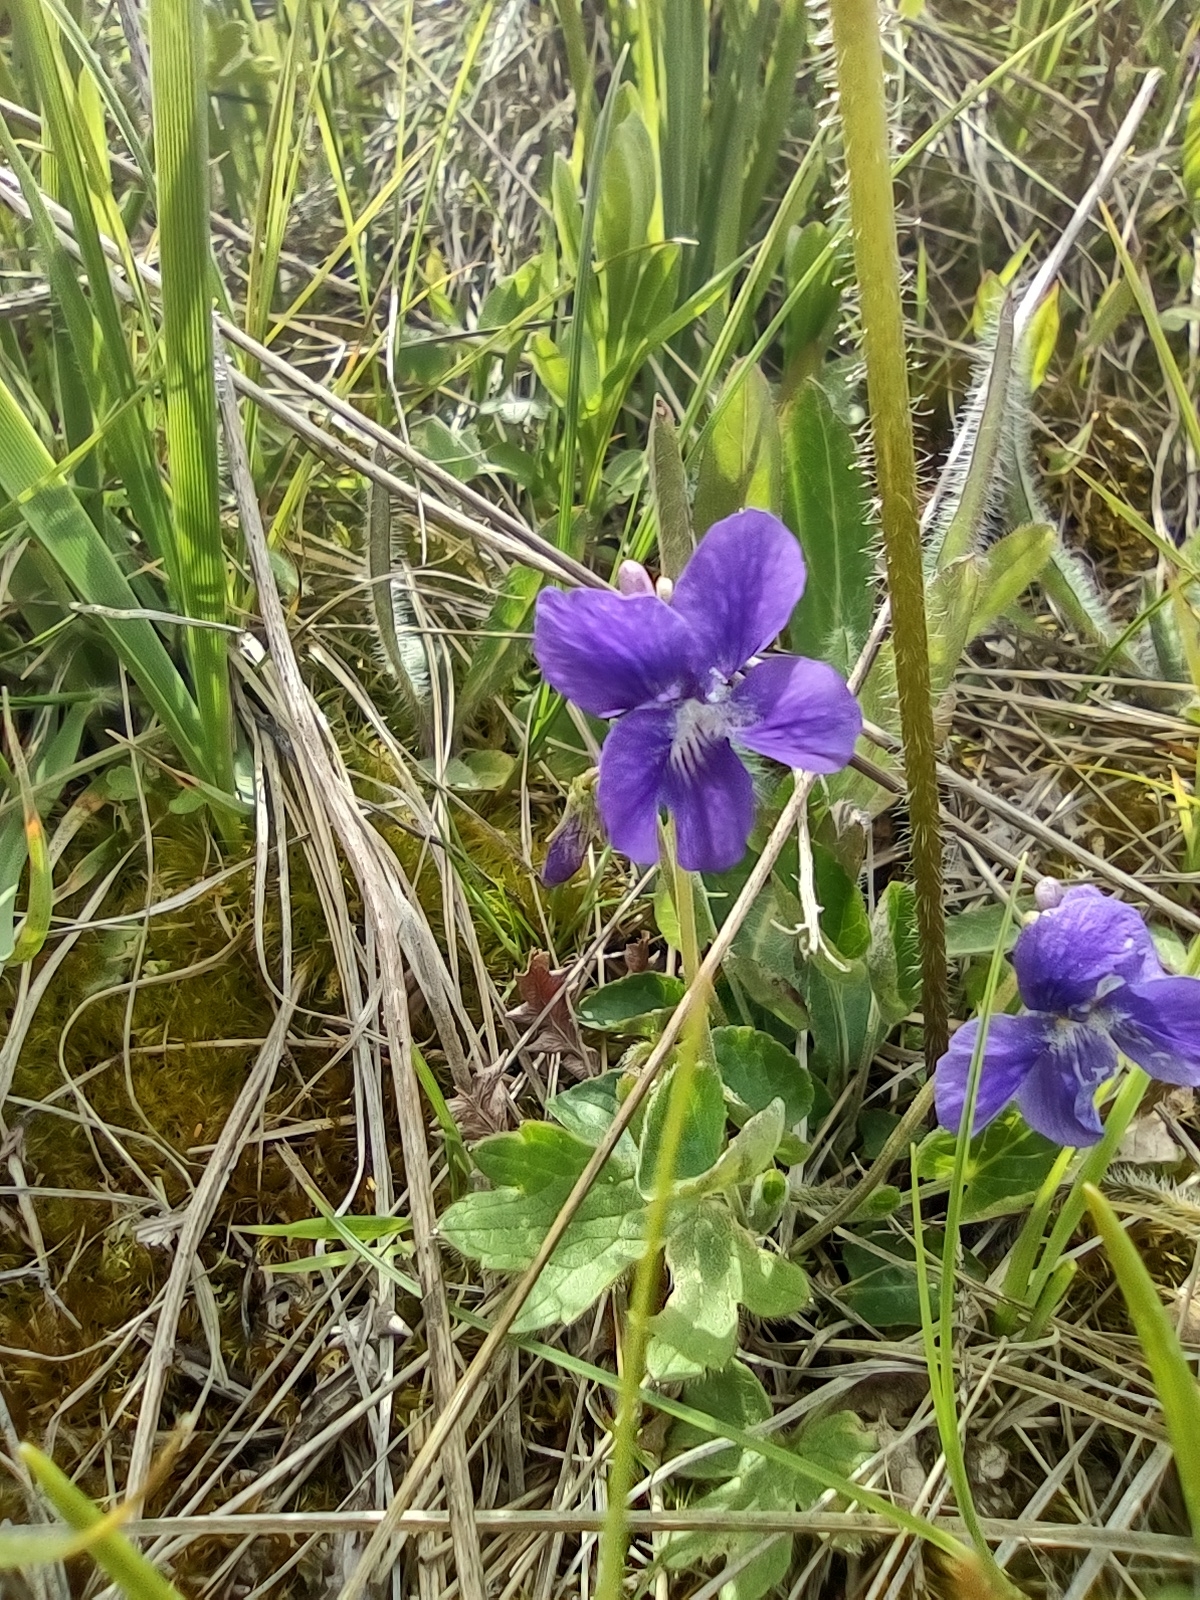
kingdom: Plantae
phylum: Tracheophyta
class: Magnoliopsida
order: Malpighiales
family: Violaceae
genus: Viola
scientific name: Viola adunca
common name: Sand violet
